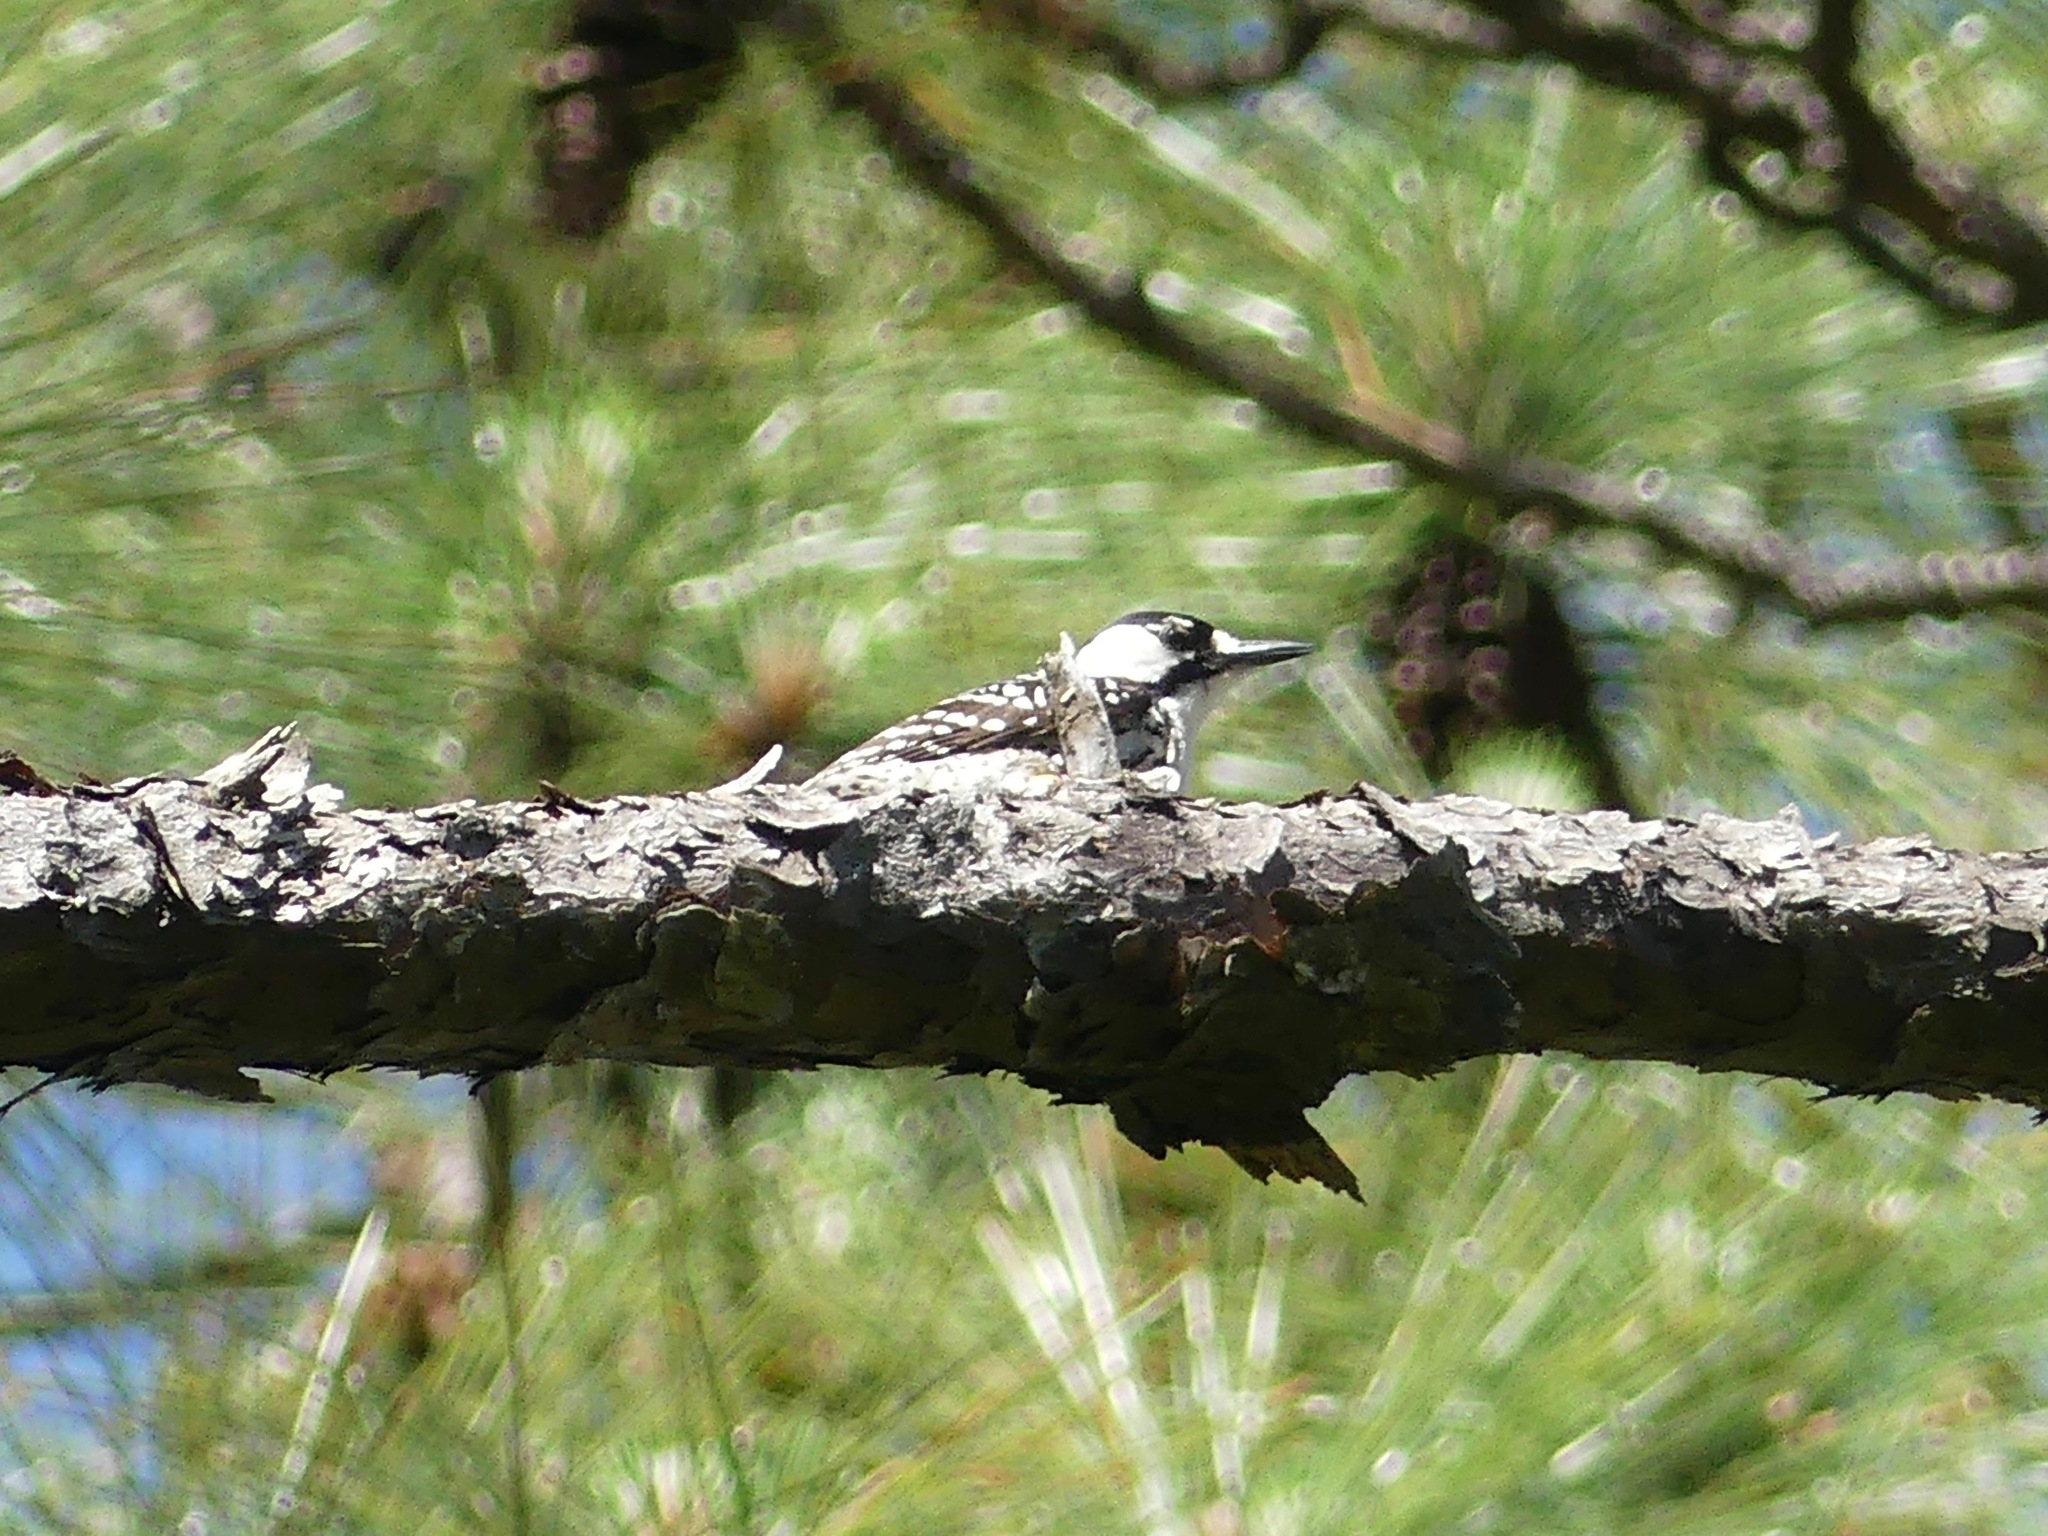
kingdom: Animalia
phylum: Chordata
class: Aves
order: Piciformes
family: Picidae
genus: Leuconotopicus
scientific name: Leuconotopicus borealis
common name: Red-cockaded woodpecker
